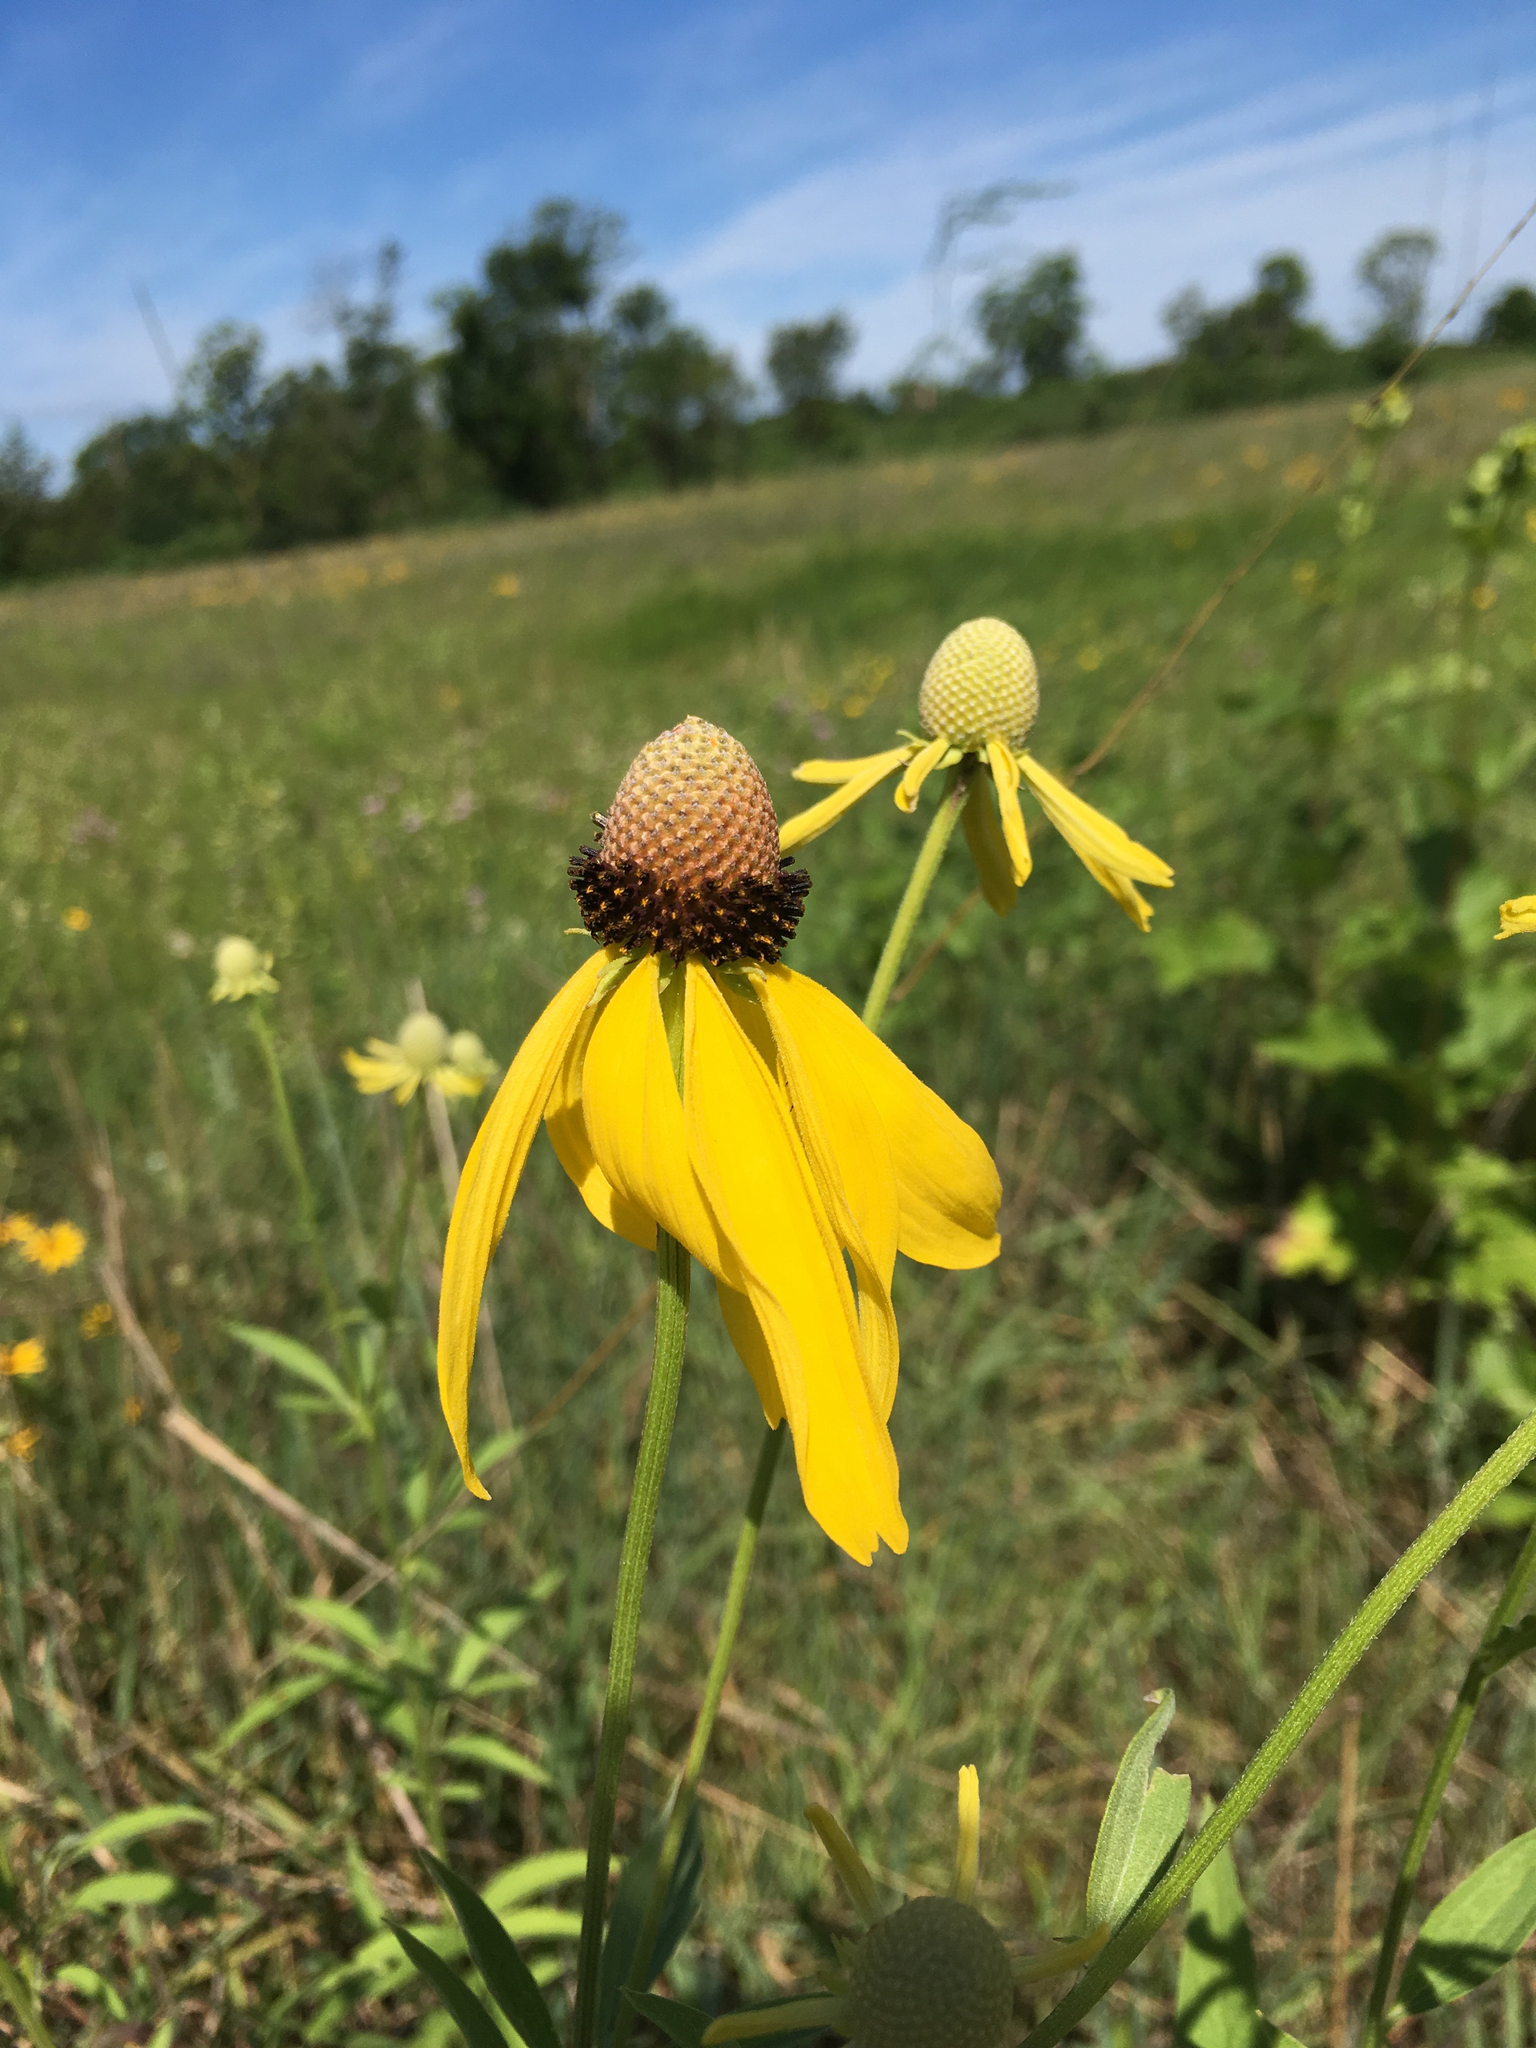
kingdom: Plantae
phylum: Tracheophyta
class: Magnoliopsida
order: Asterales
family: Asteraceae
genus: Ratibida
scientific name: Ratibida pinnata
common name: Drooping prairie-coneflower
